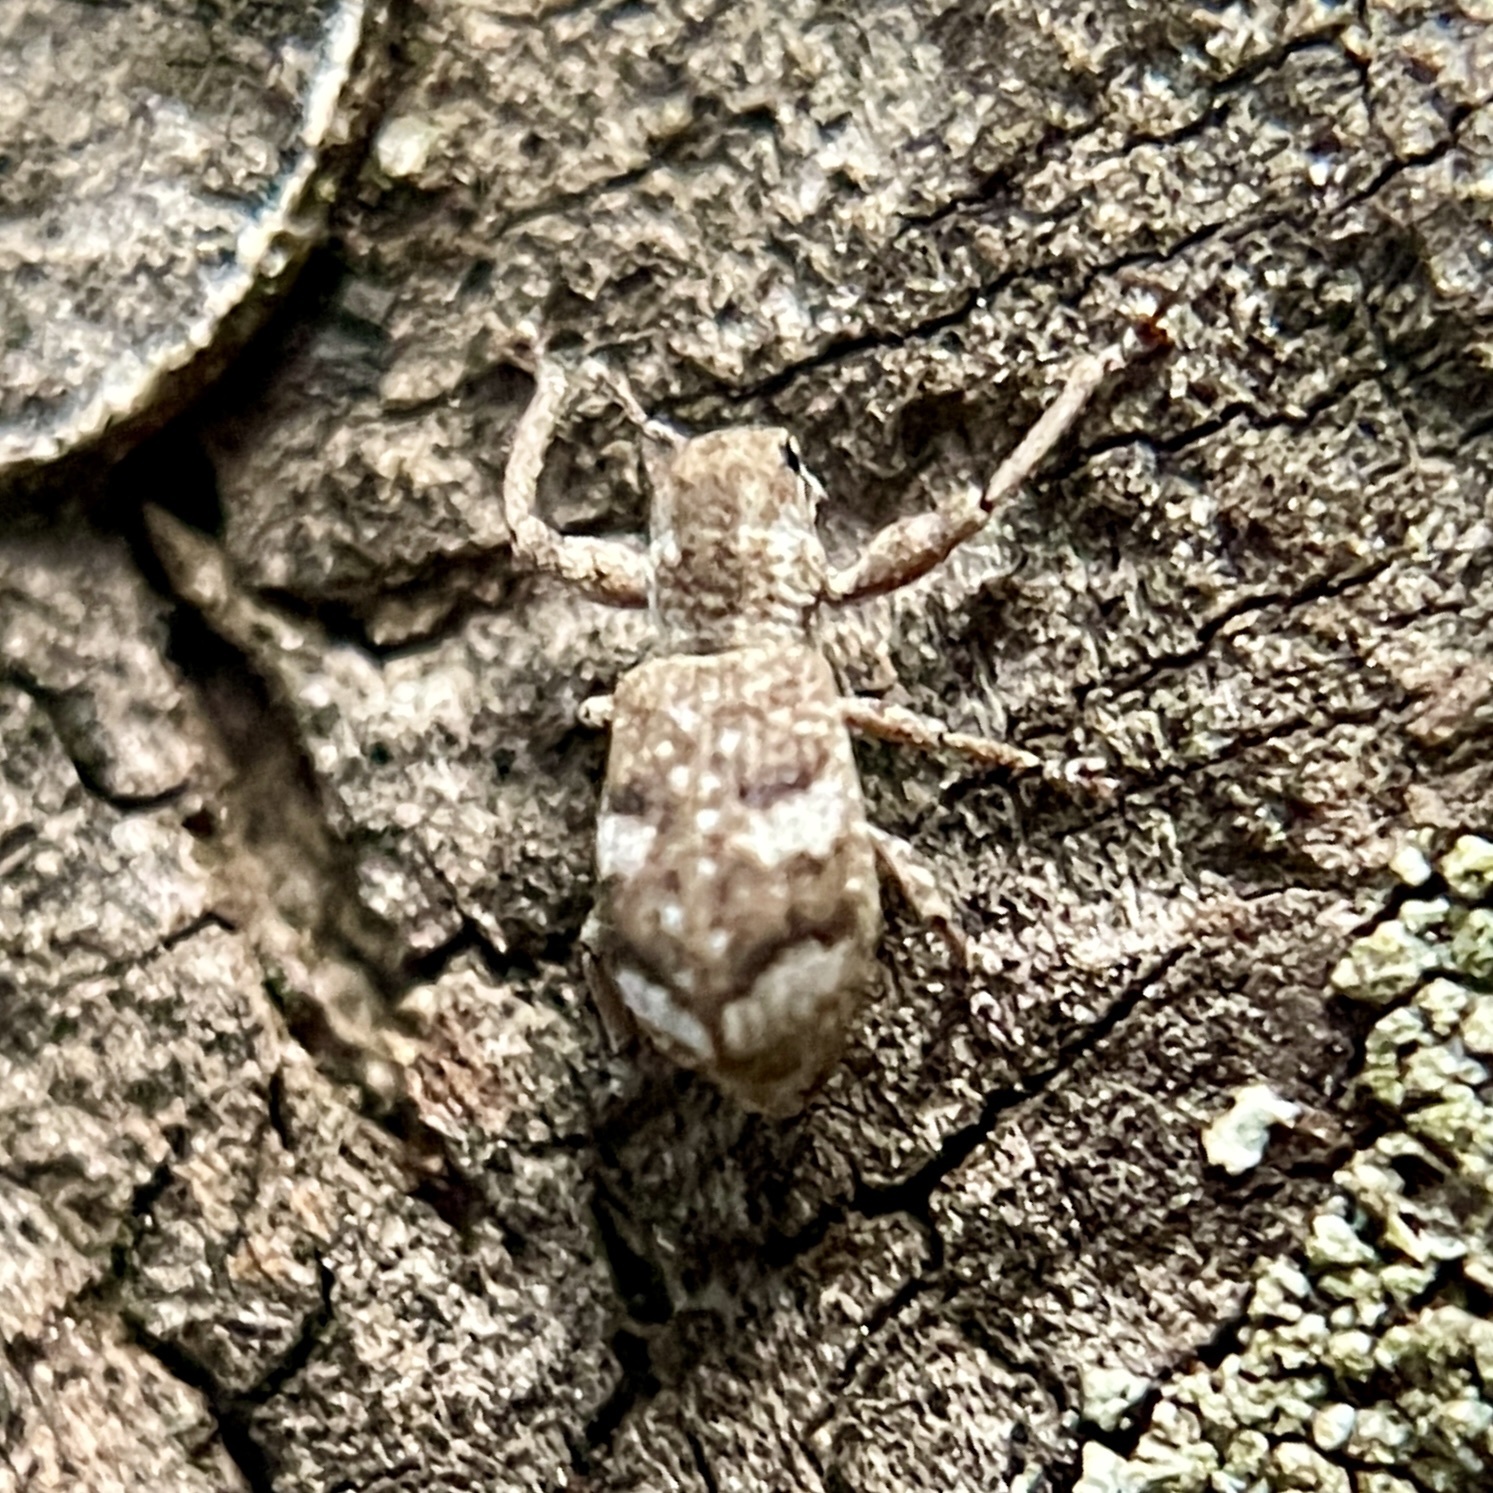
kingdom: Animalia
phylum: Arthropoda
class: Insecta
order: Coleoptera
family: Curculionidae
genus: Pandeleteius
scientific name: Pandeleteius cinereus
